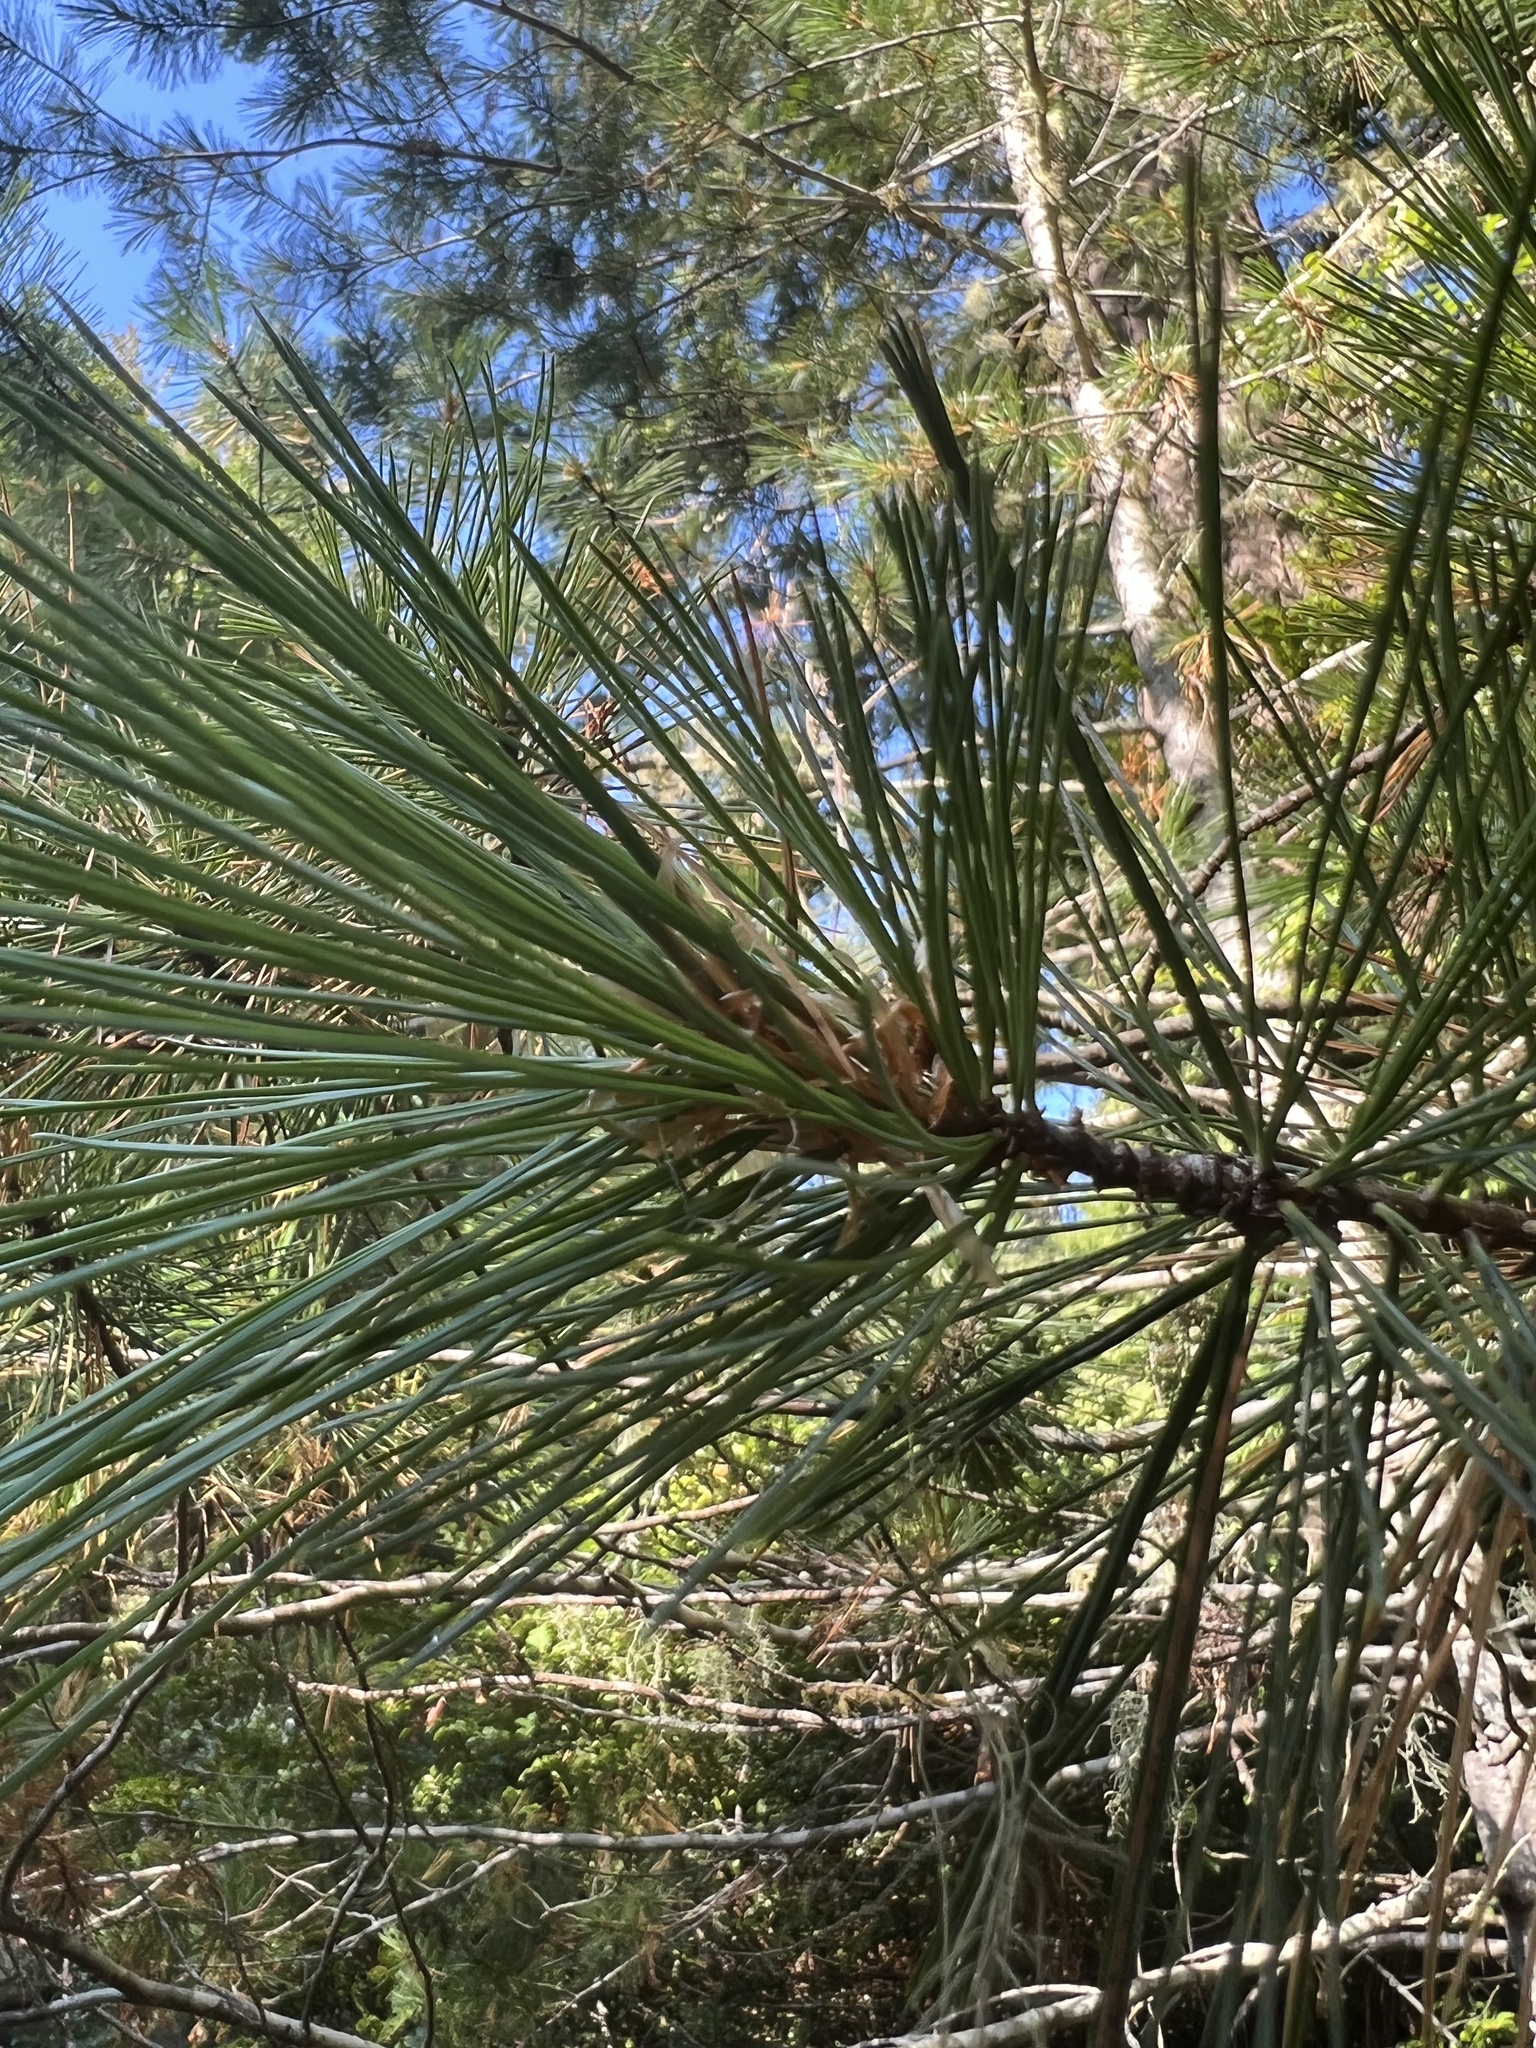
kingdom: Plantae
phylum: Tracheophyta
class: Pinopsida
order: Pinales
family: Pinaceae
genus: Pinus
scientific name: Pinus monticola
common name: Western white pine
